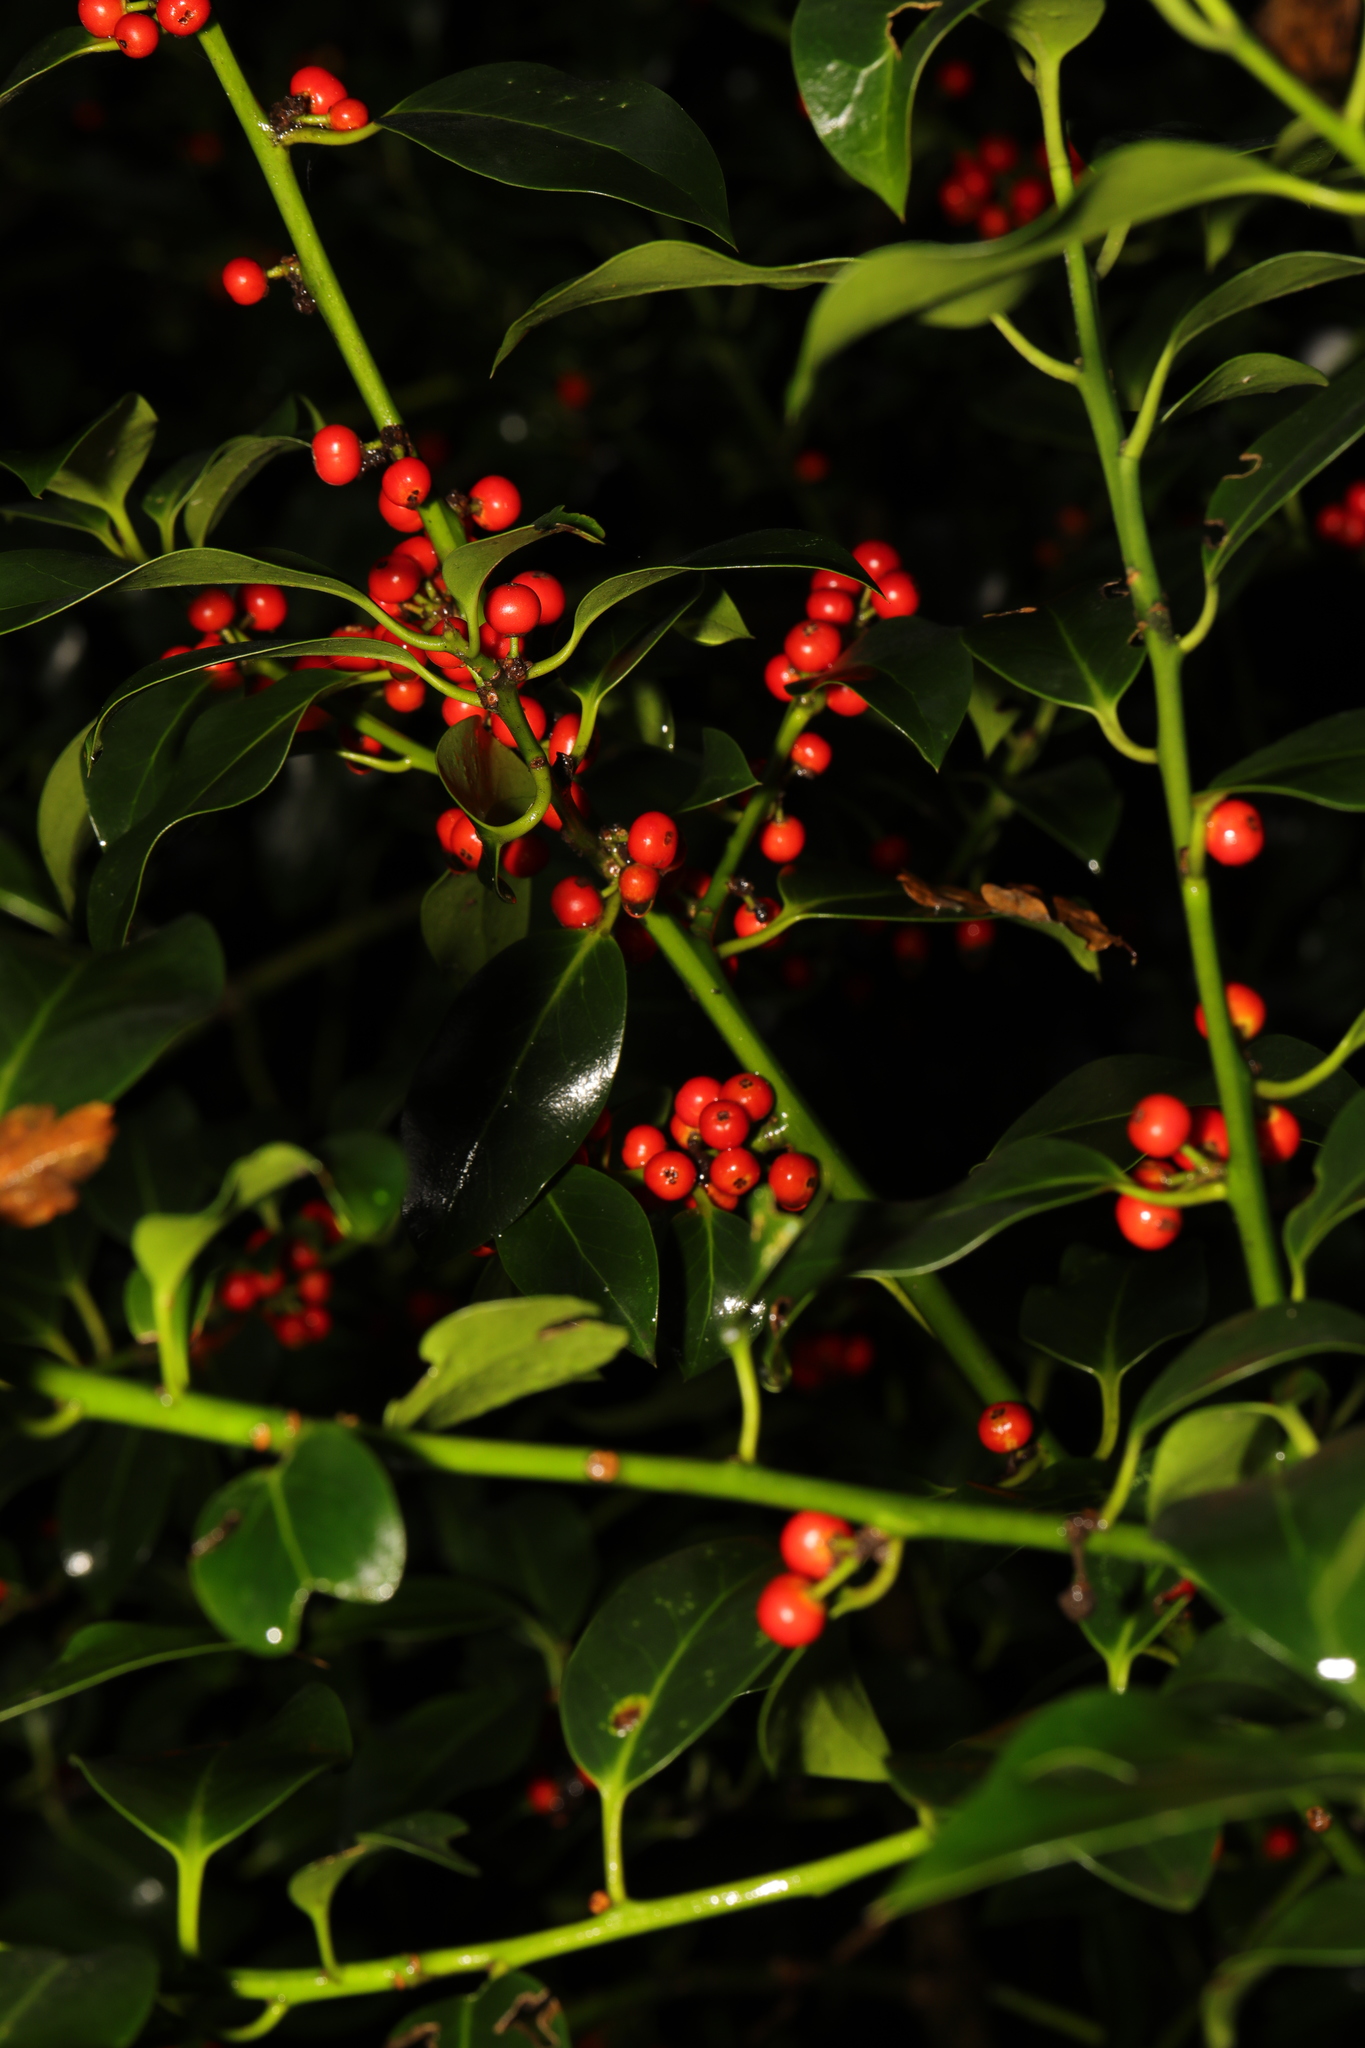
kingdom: Plantae
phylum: Tracheophyta
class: Magnoliopsida
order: Aquifoliales
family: Aquifoliaceae
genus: Ilex
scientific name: Ilex aquifolium
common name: English holly
